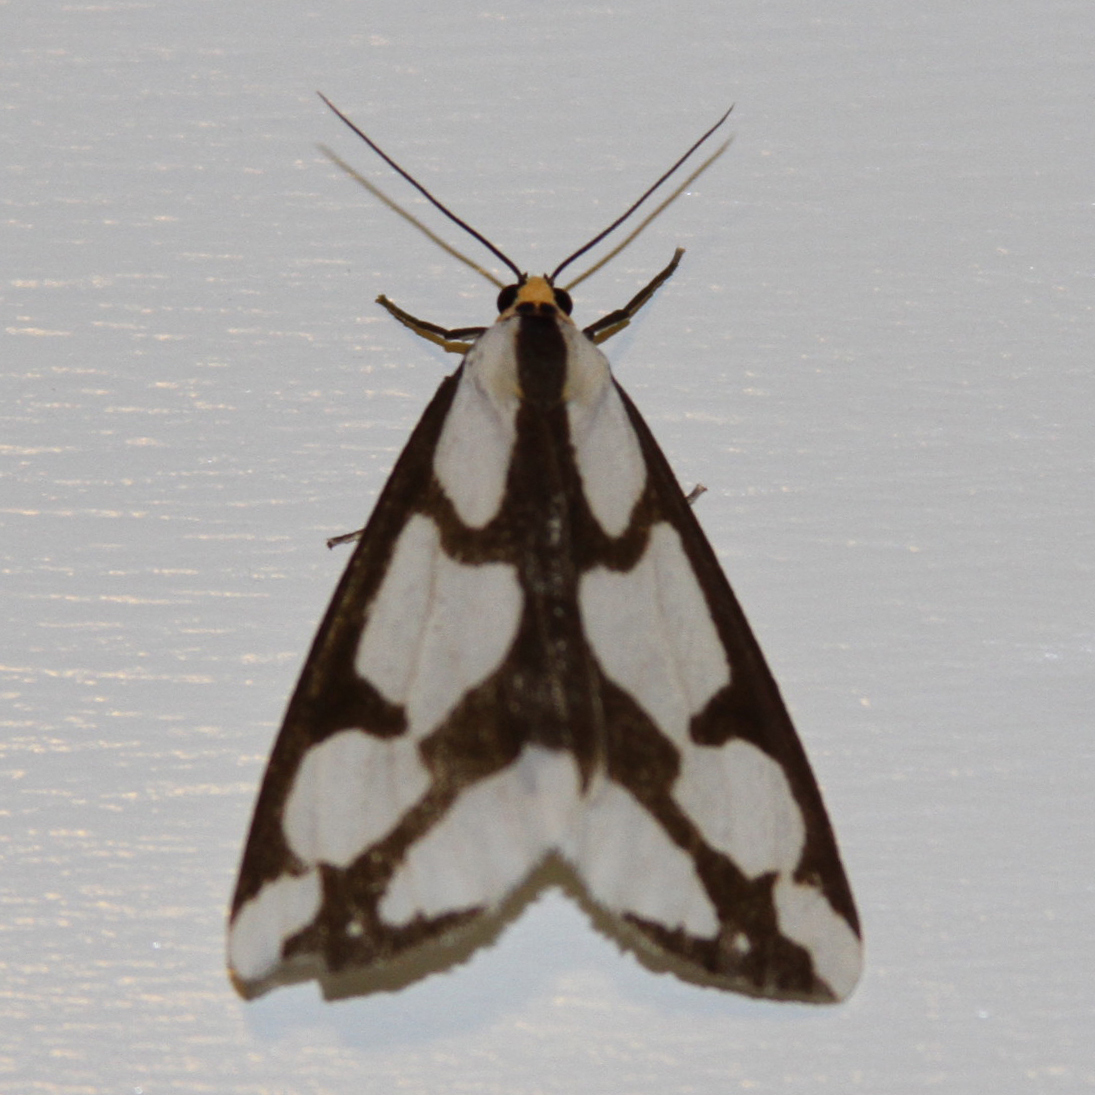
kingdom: Animalia
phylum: Arthropoda
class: Insecta
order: Lepidoptera
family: Erebidae
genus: Haploa
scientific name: Haploa lecontei
